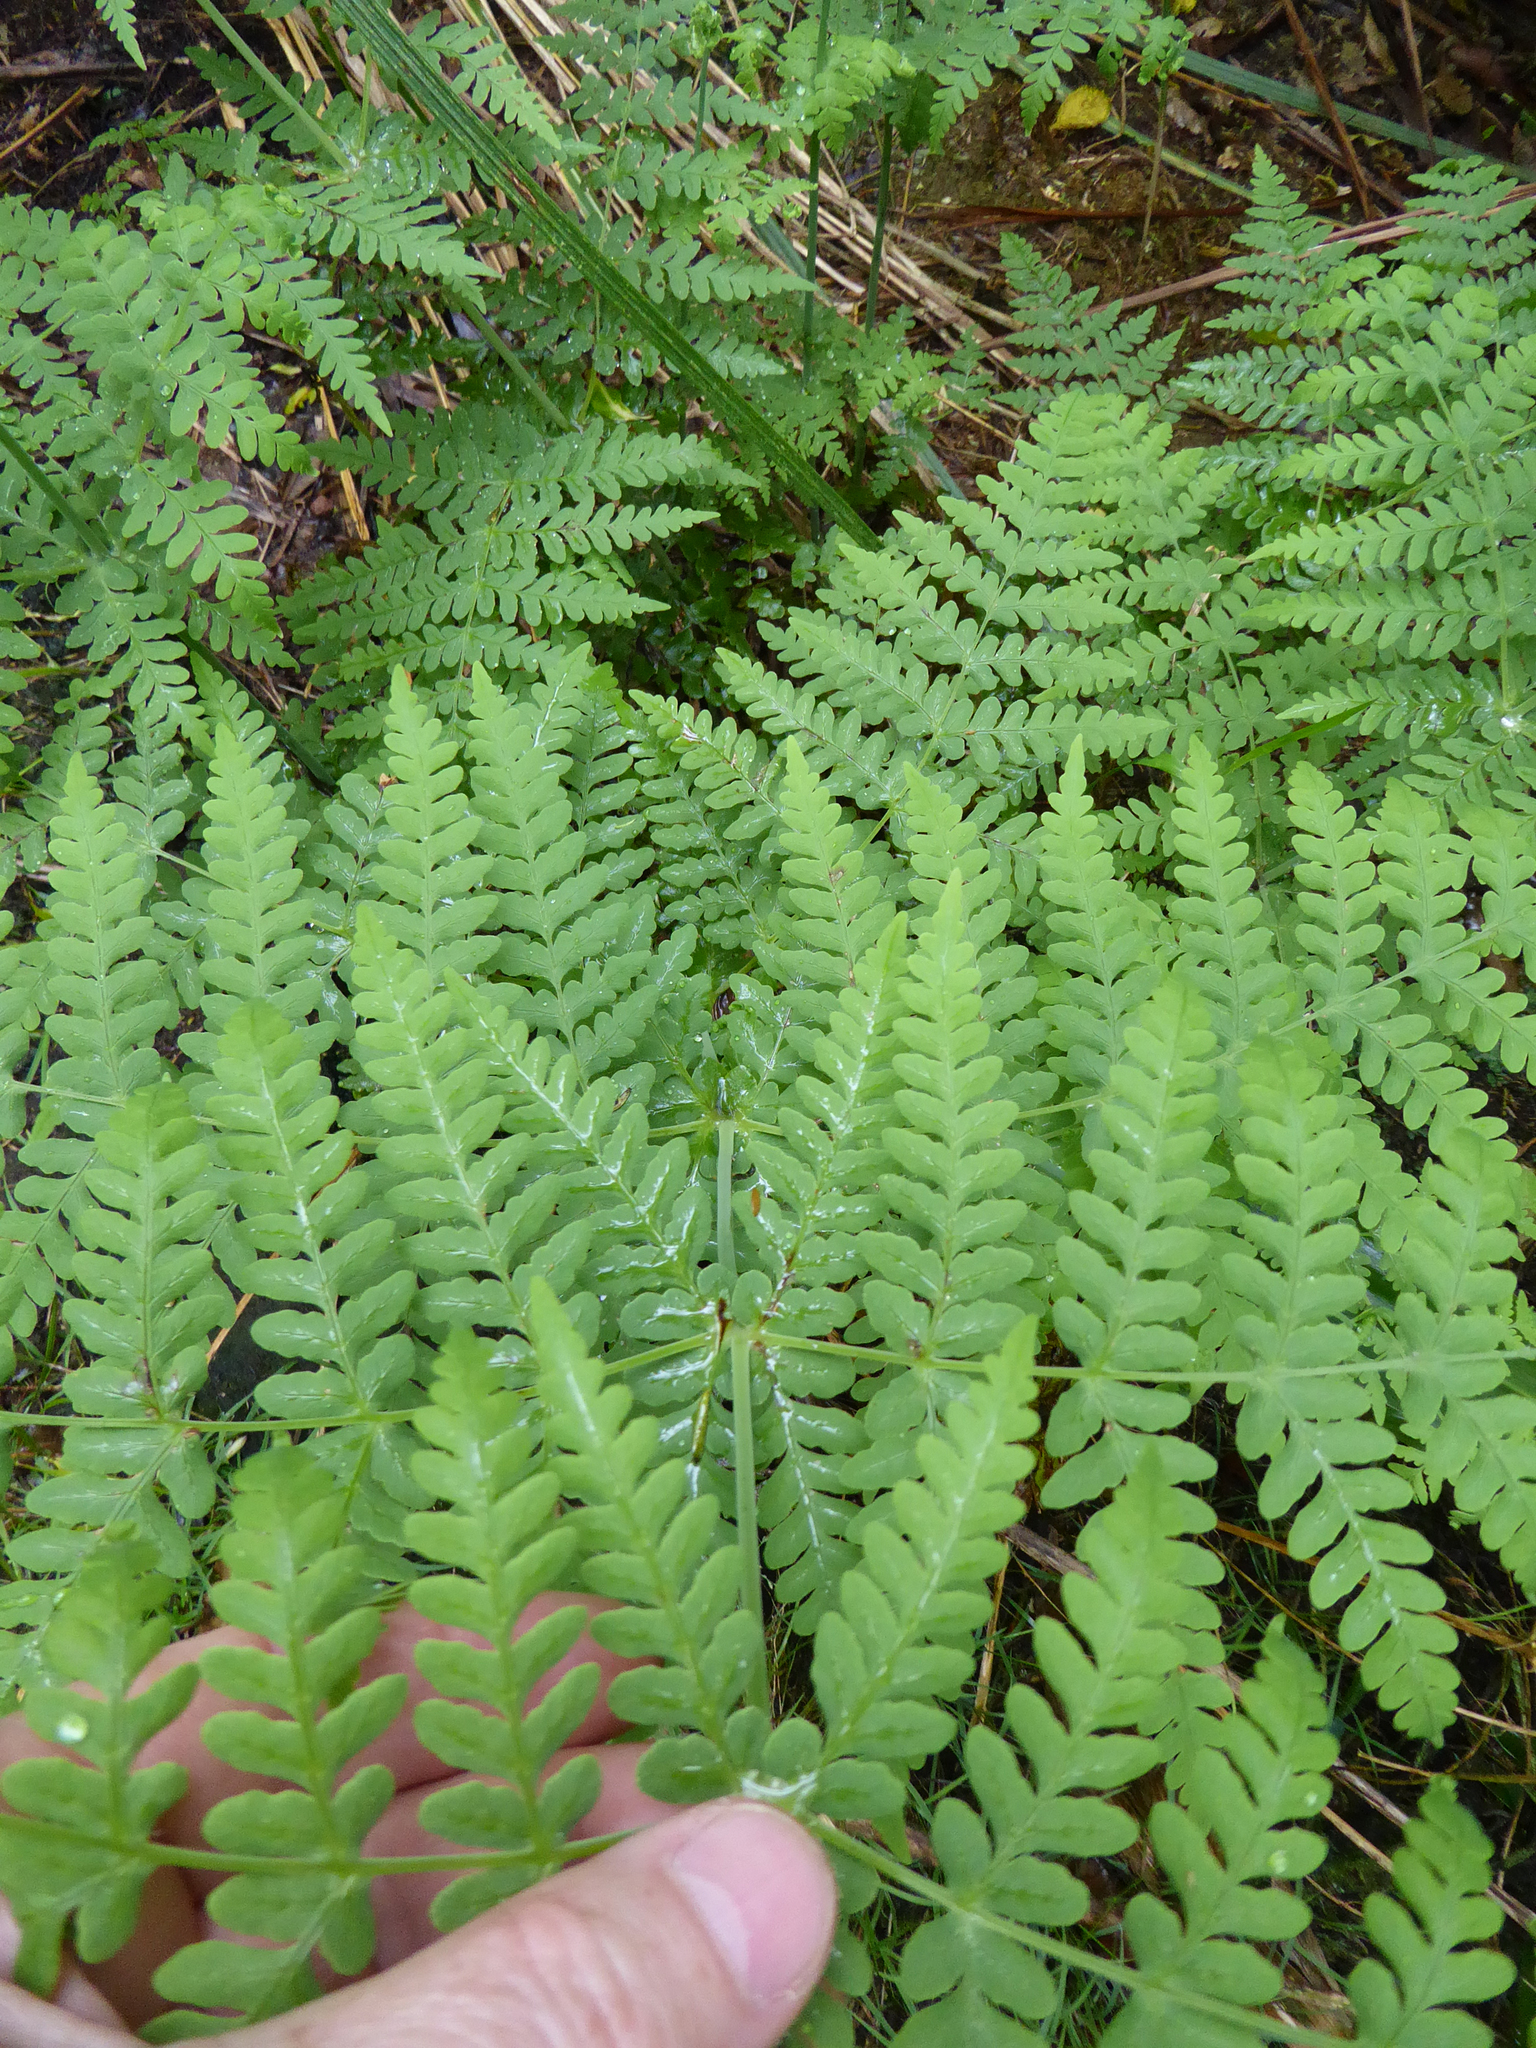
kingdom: Plantae
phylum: Tracheophyta
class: Polypodiopsida
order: Polypodiales
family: Dennstaedtiaceae
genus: Histiopteris
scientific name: Histiopteris incisa
